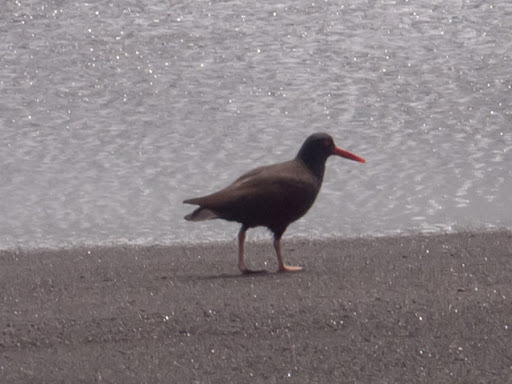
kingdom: Animalia
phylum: Chordata
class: Aves
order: Charadriiformes
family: Haematopodidae
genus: Haematopus
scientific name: Haematopus bachmani
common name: Black oystercatcher
